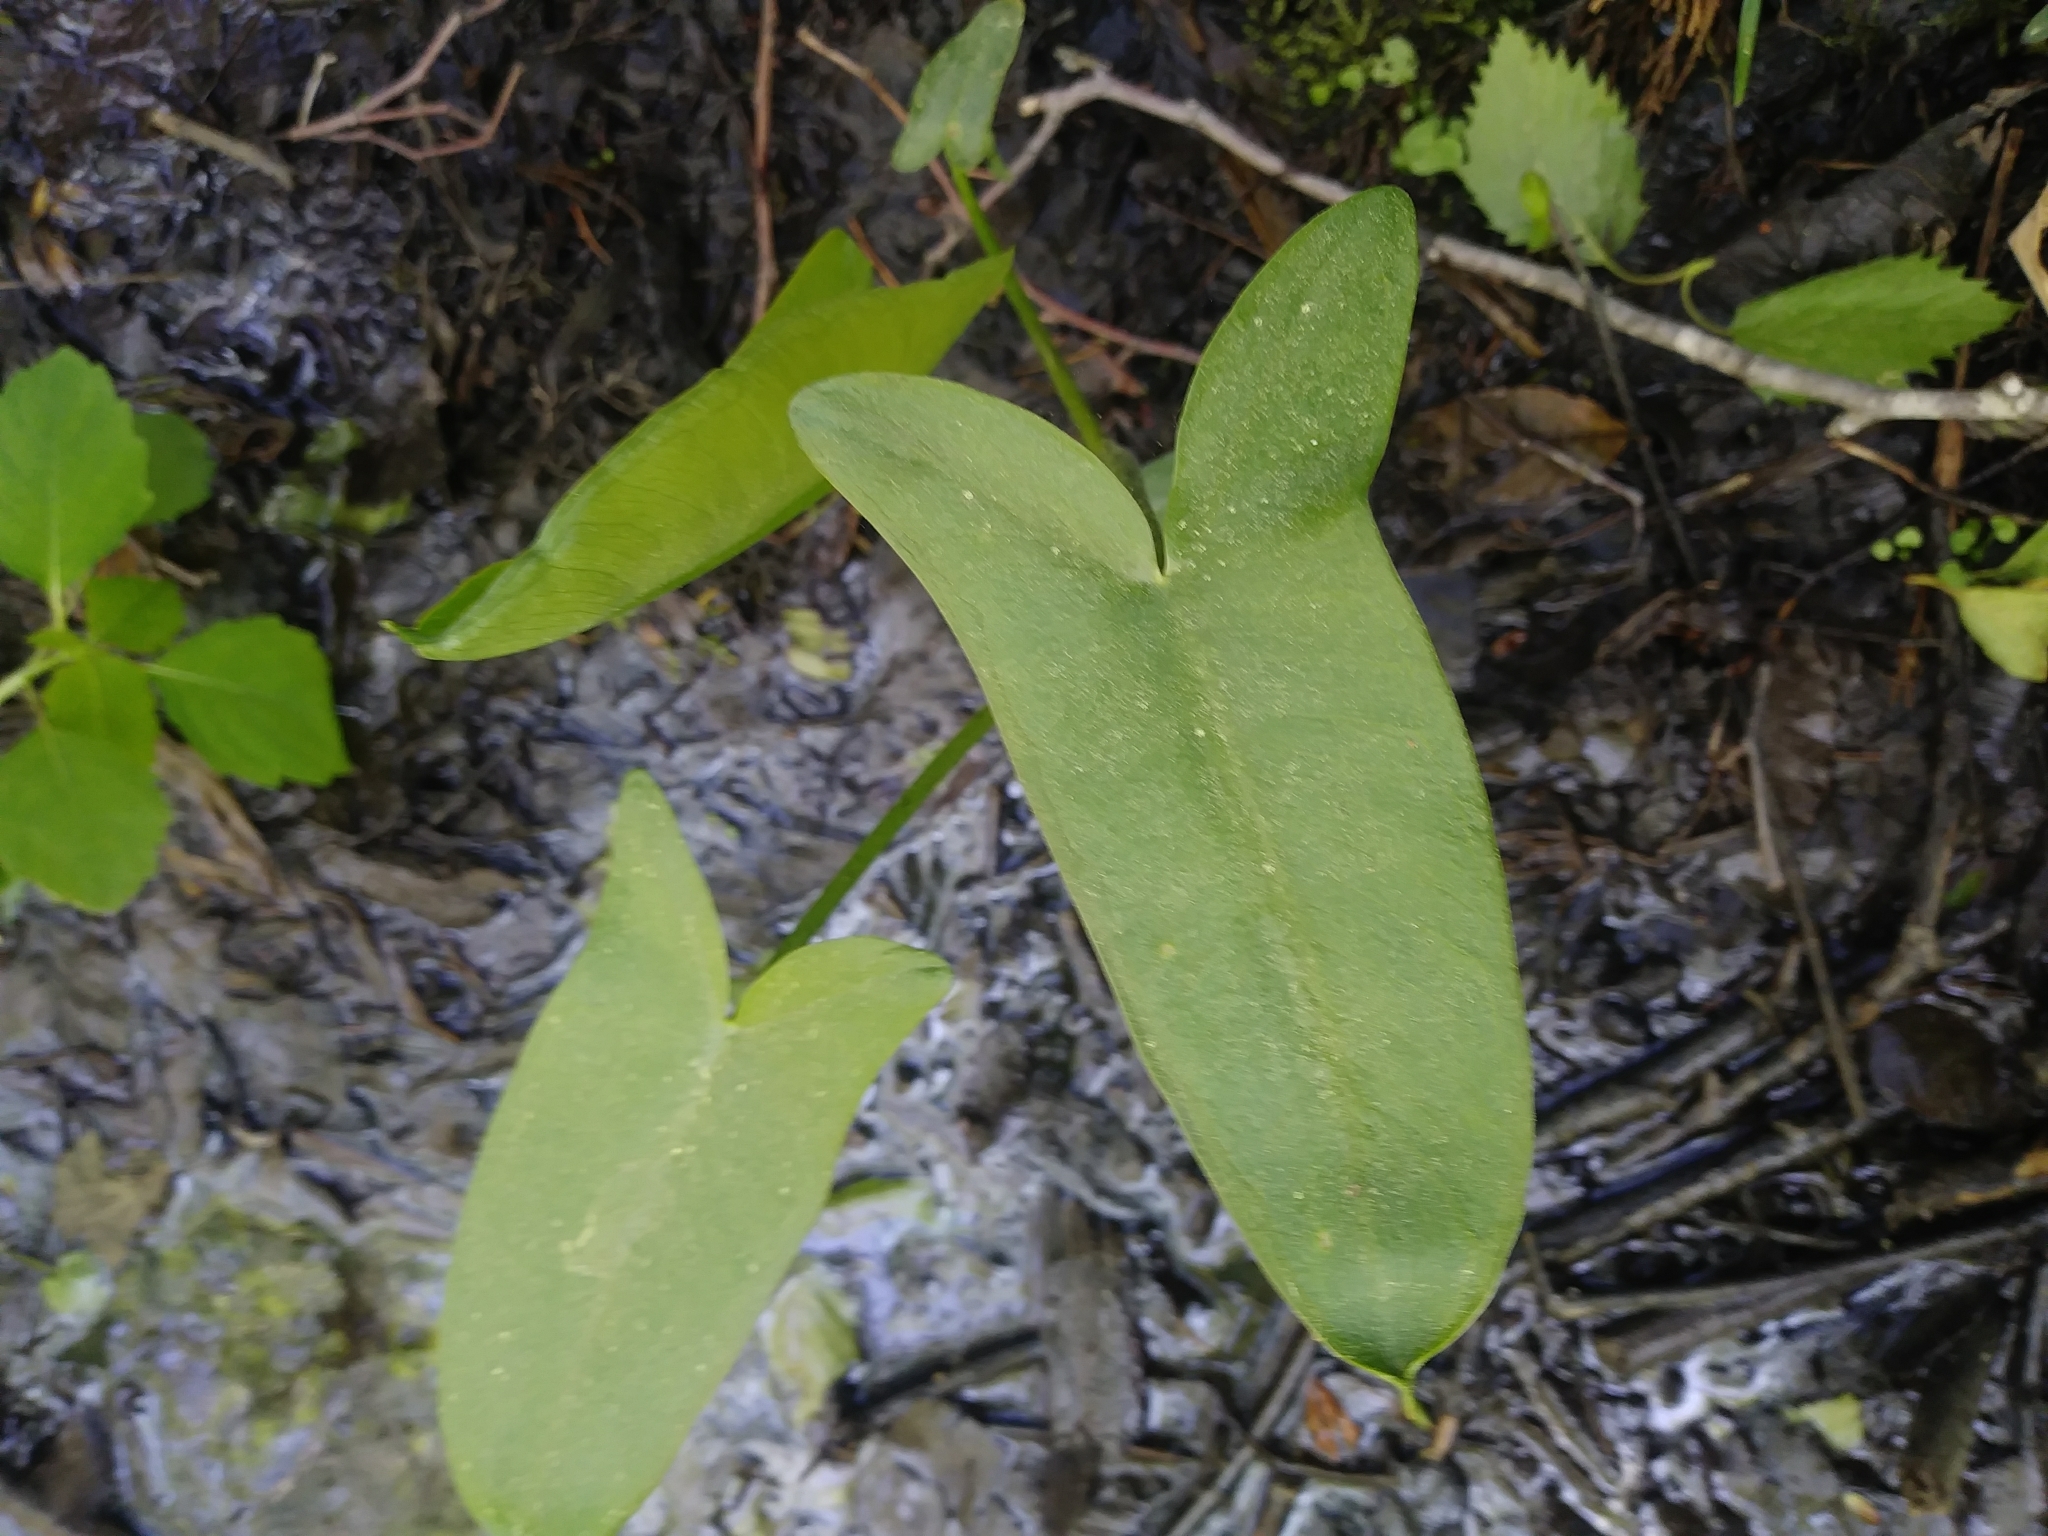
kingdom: Plantae
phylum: Tracheophyta
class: Liliopsida
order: Alismatales
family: Araceae
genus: Peltandra
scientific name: Peltandra virginica
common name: Arrow arum
